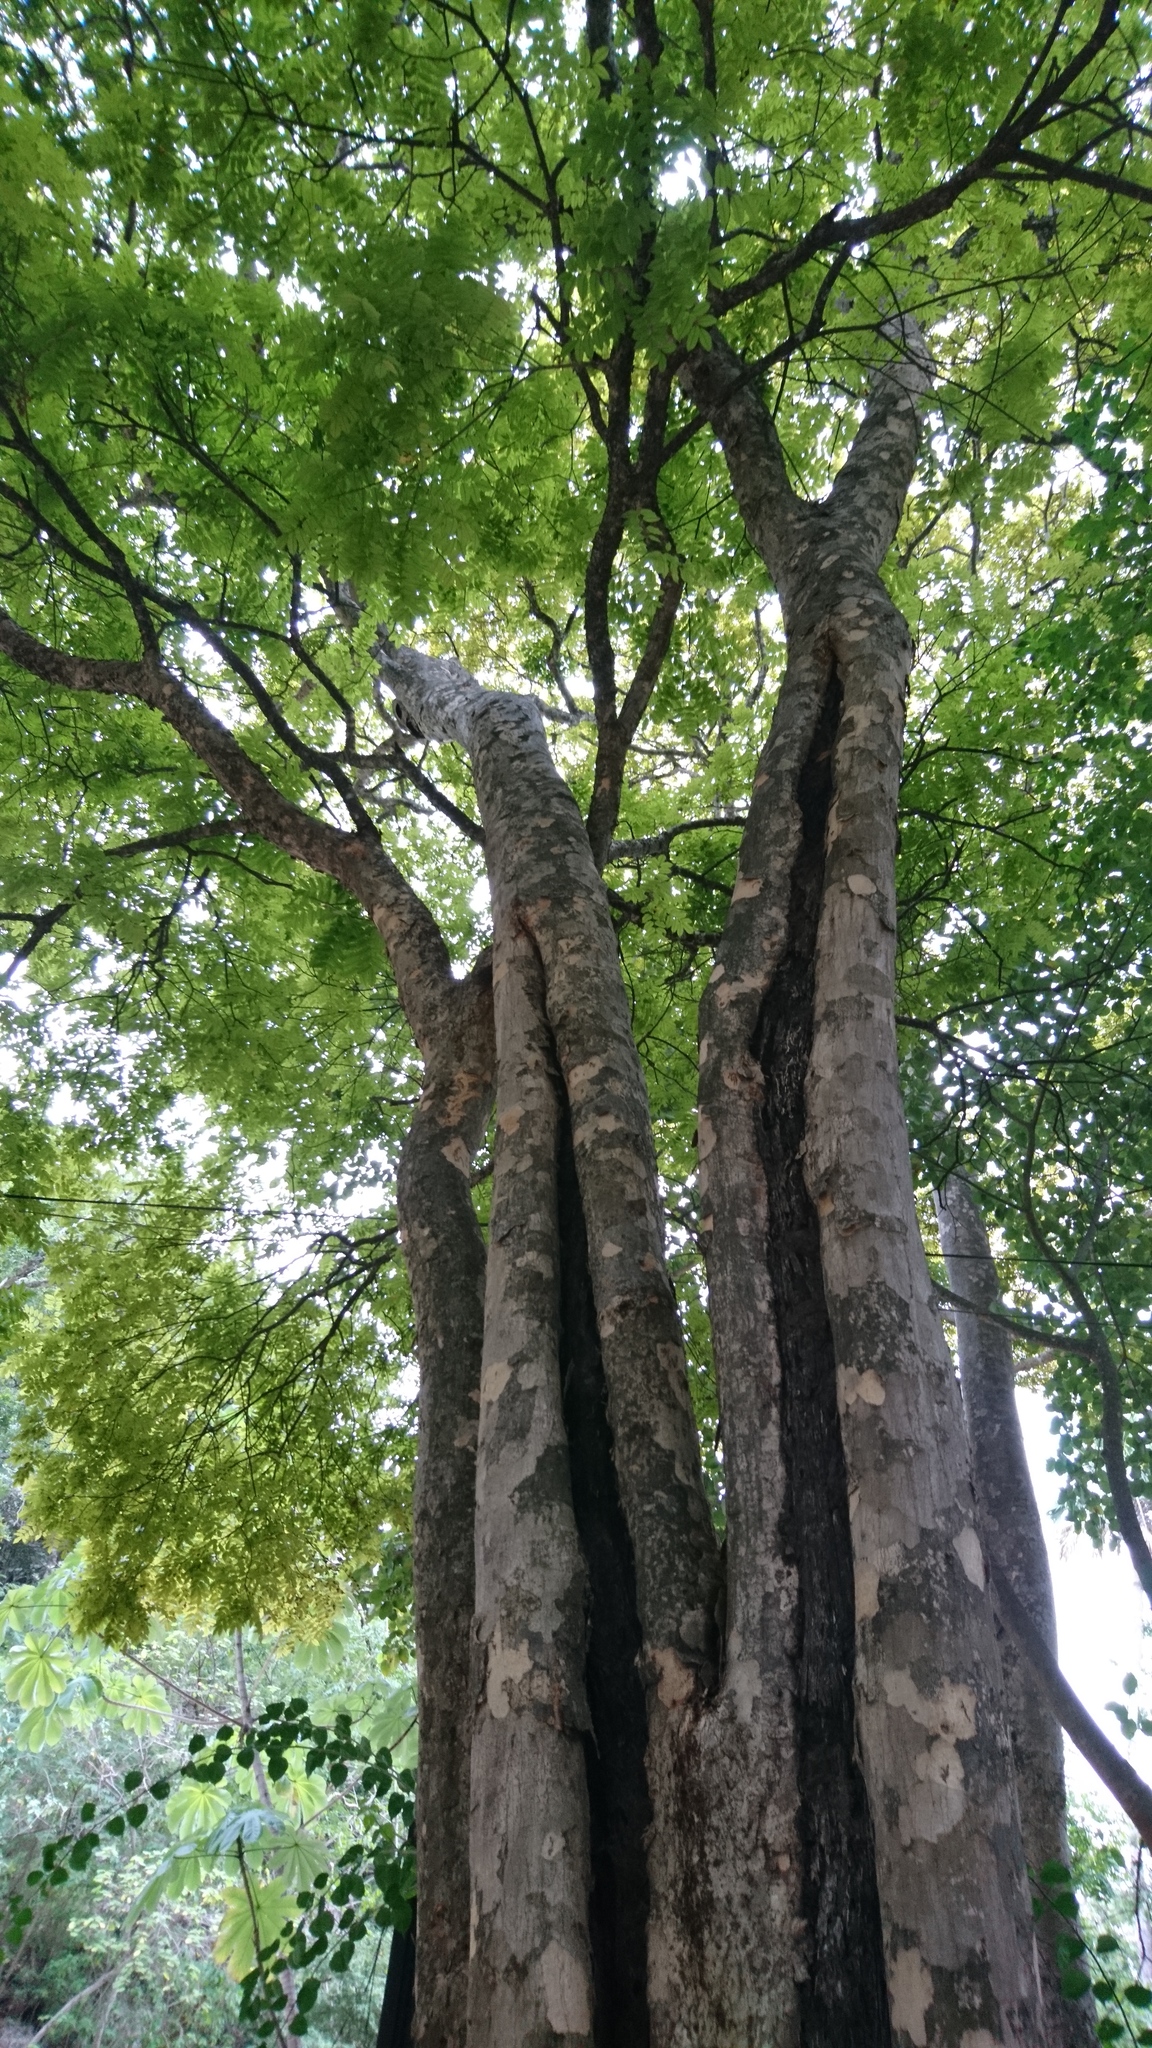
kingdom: Plantae
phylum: Tracheophyta
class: Magnoliopsida
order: Sapindales
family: Anacardiaceae
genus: Astronium
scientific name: Astronium graveolens
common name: Glassywood
